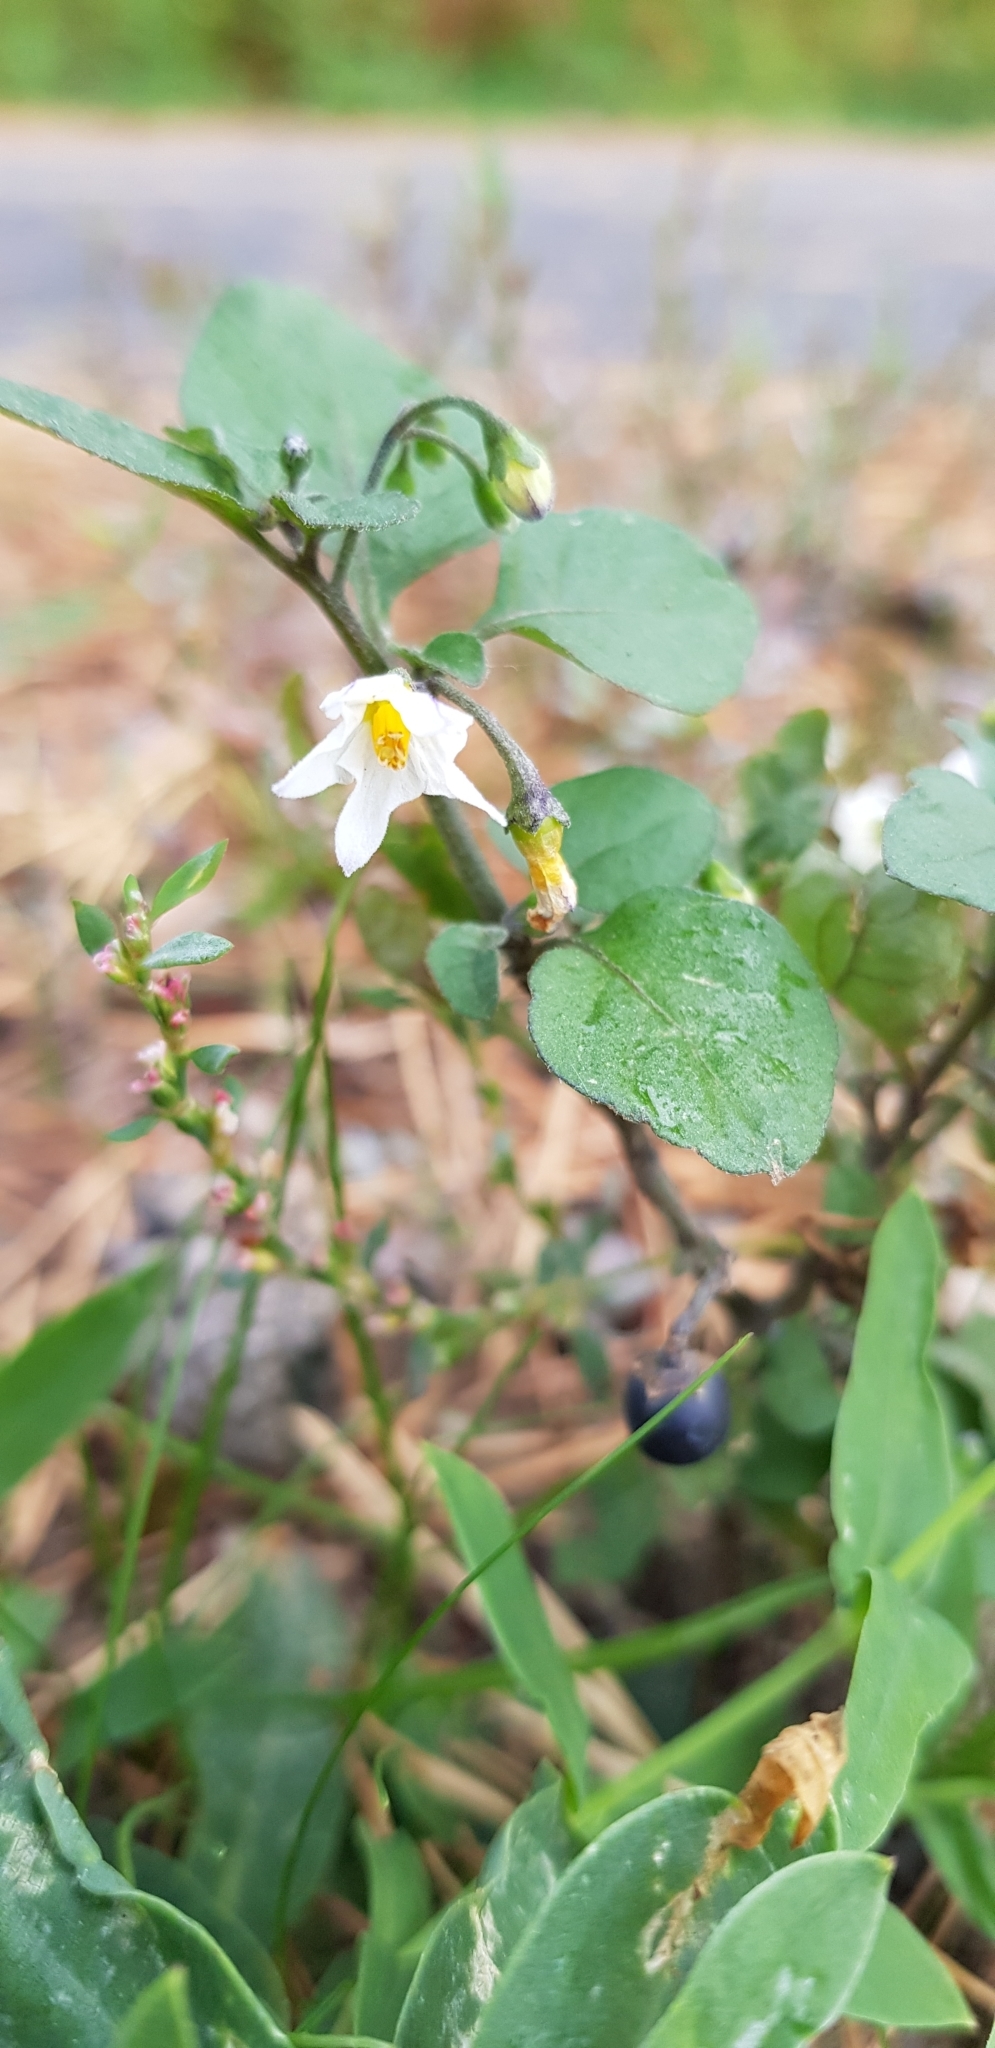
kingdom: Plantae
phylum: Tracheophyta
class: Magnoliopsida
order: Solanales
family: Solanaceae
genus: Solanum
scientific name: Solanum nigrum
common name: Black nightshade
